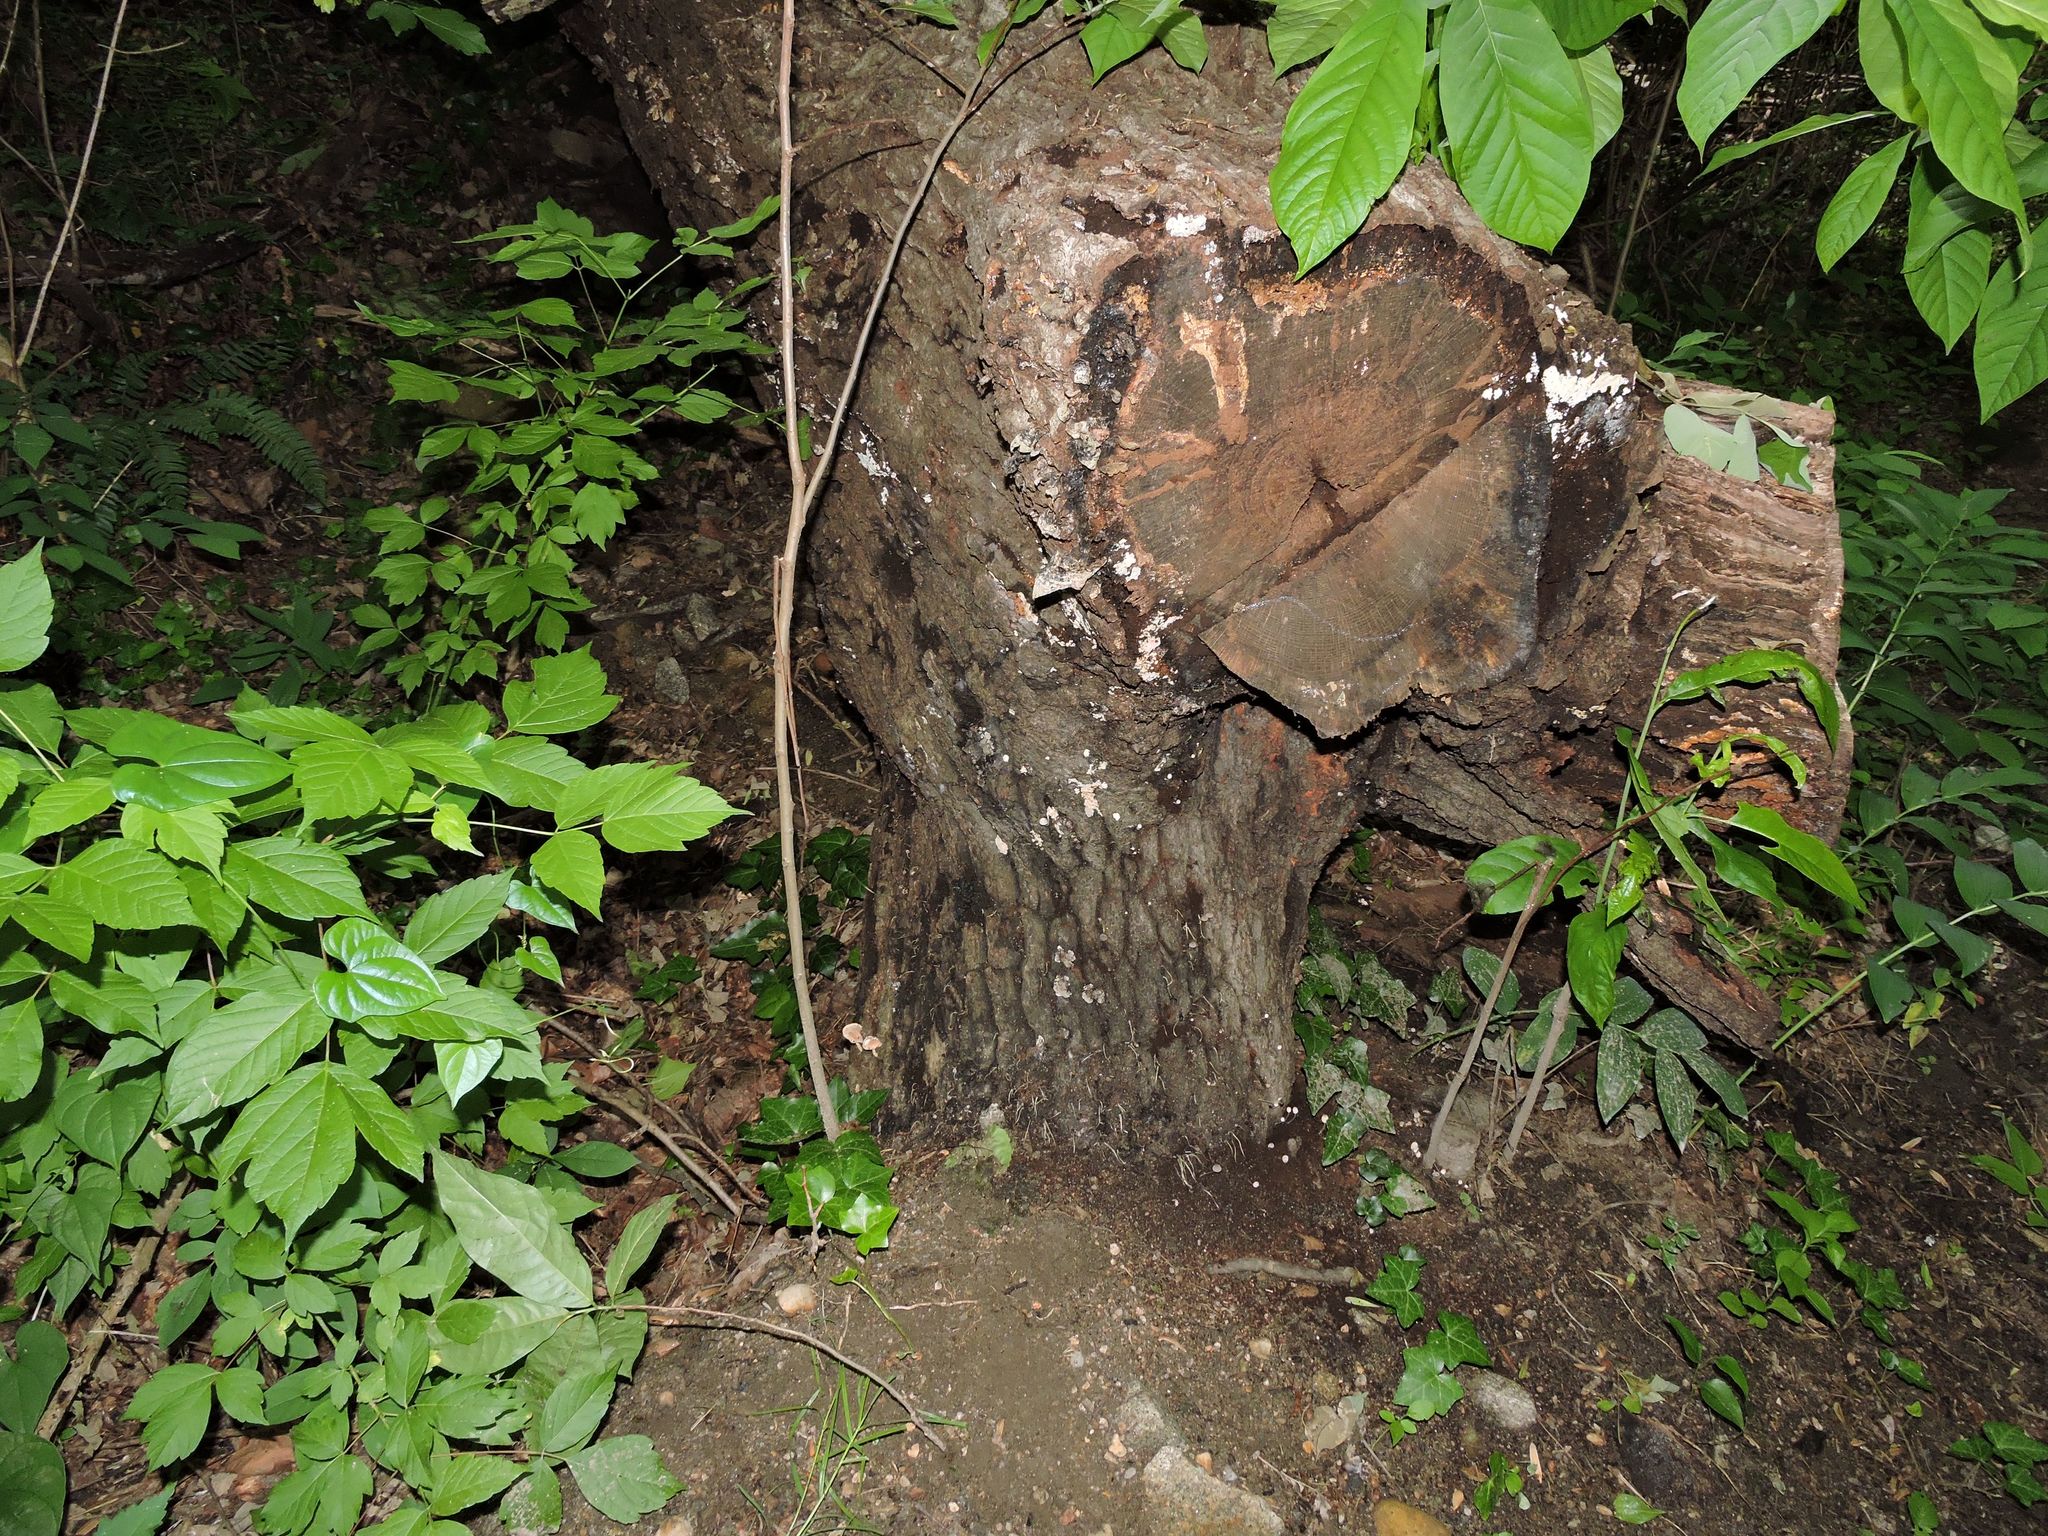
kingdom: Fungi
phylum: Basidiomycota
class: Agaricomycetes
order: Auriculariales
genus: Ductifera
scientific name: Ductifera pululahuana
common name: White jelly fungus
